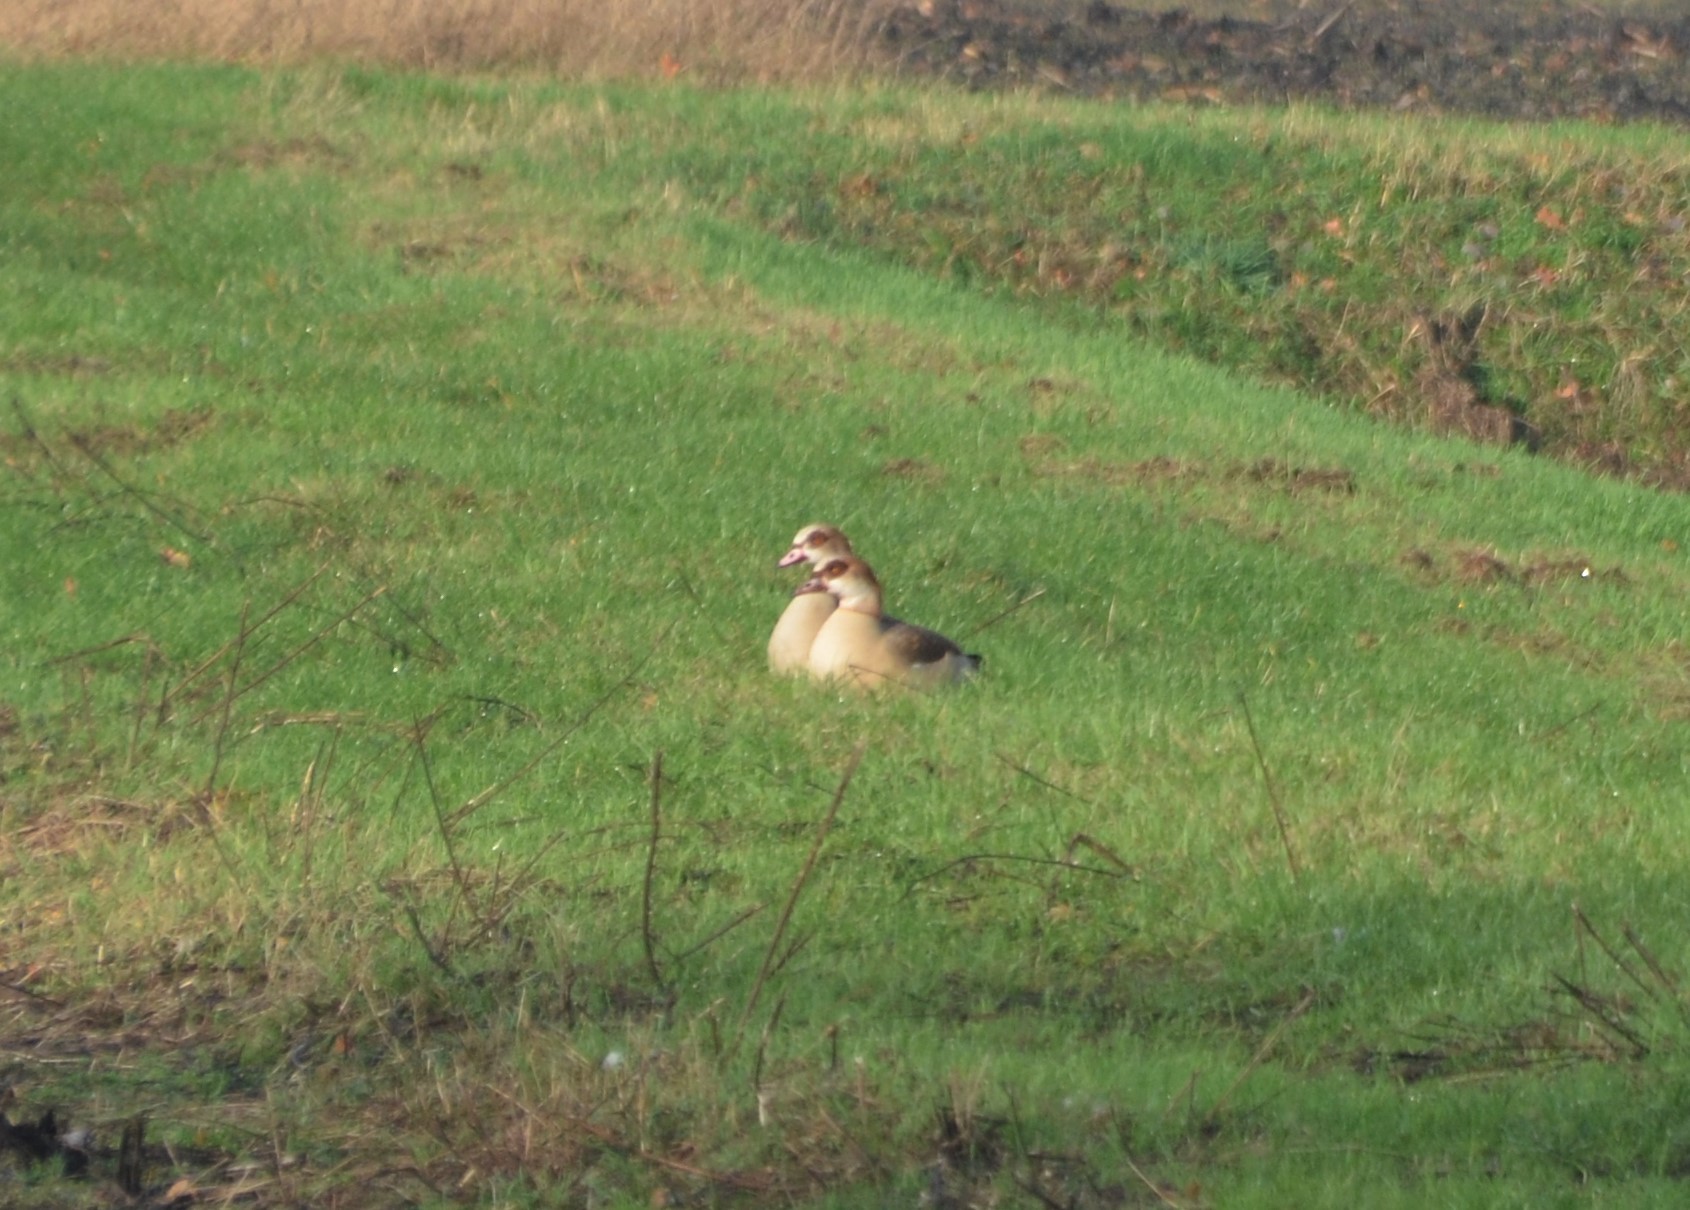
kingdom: Animalia
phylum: Chordata
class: Aves
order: Anseriformes
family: Anatidae
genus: Alopochen
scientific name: Alopochen aegyptiaca
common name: Egyptian goose
